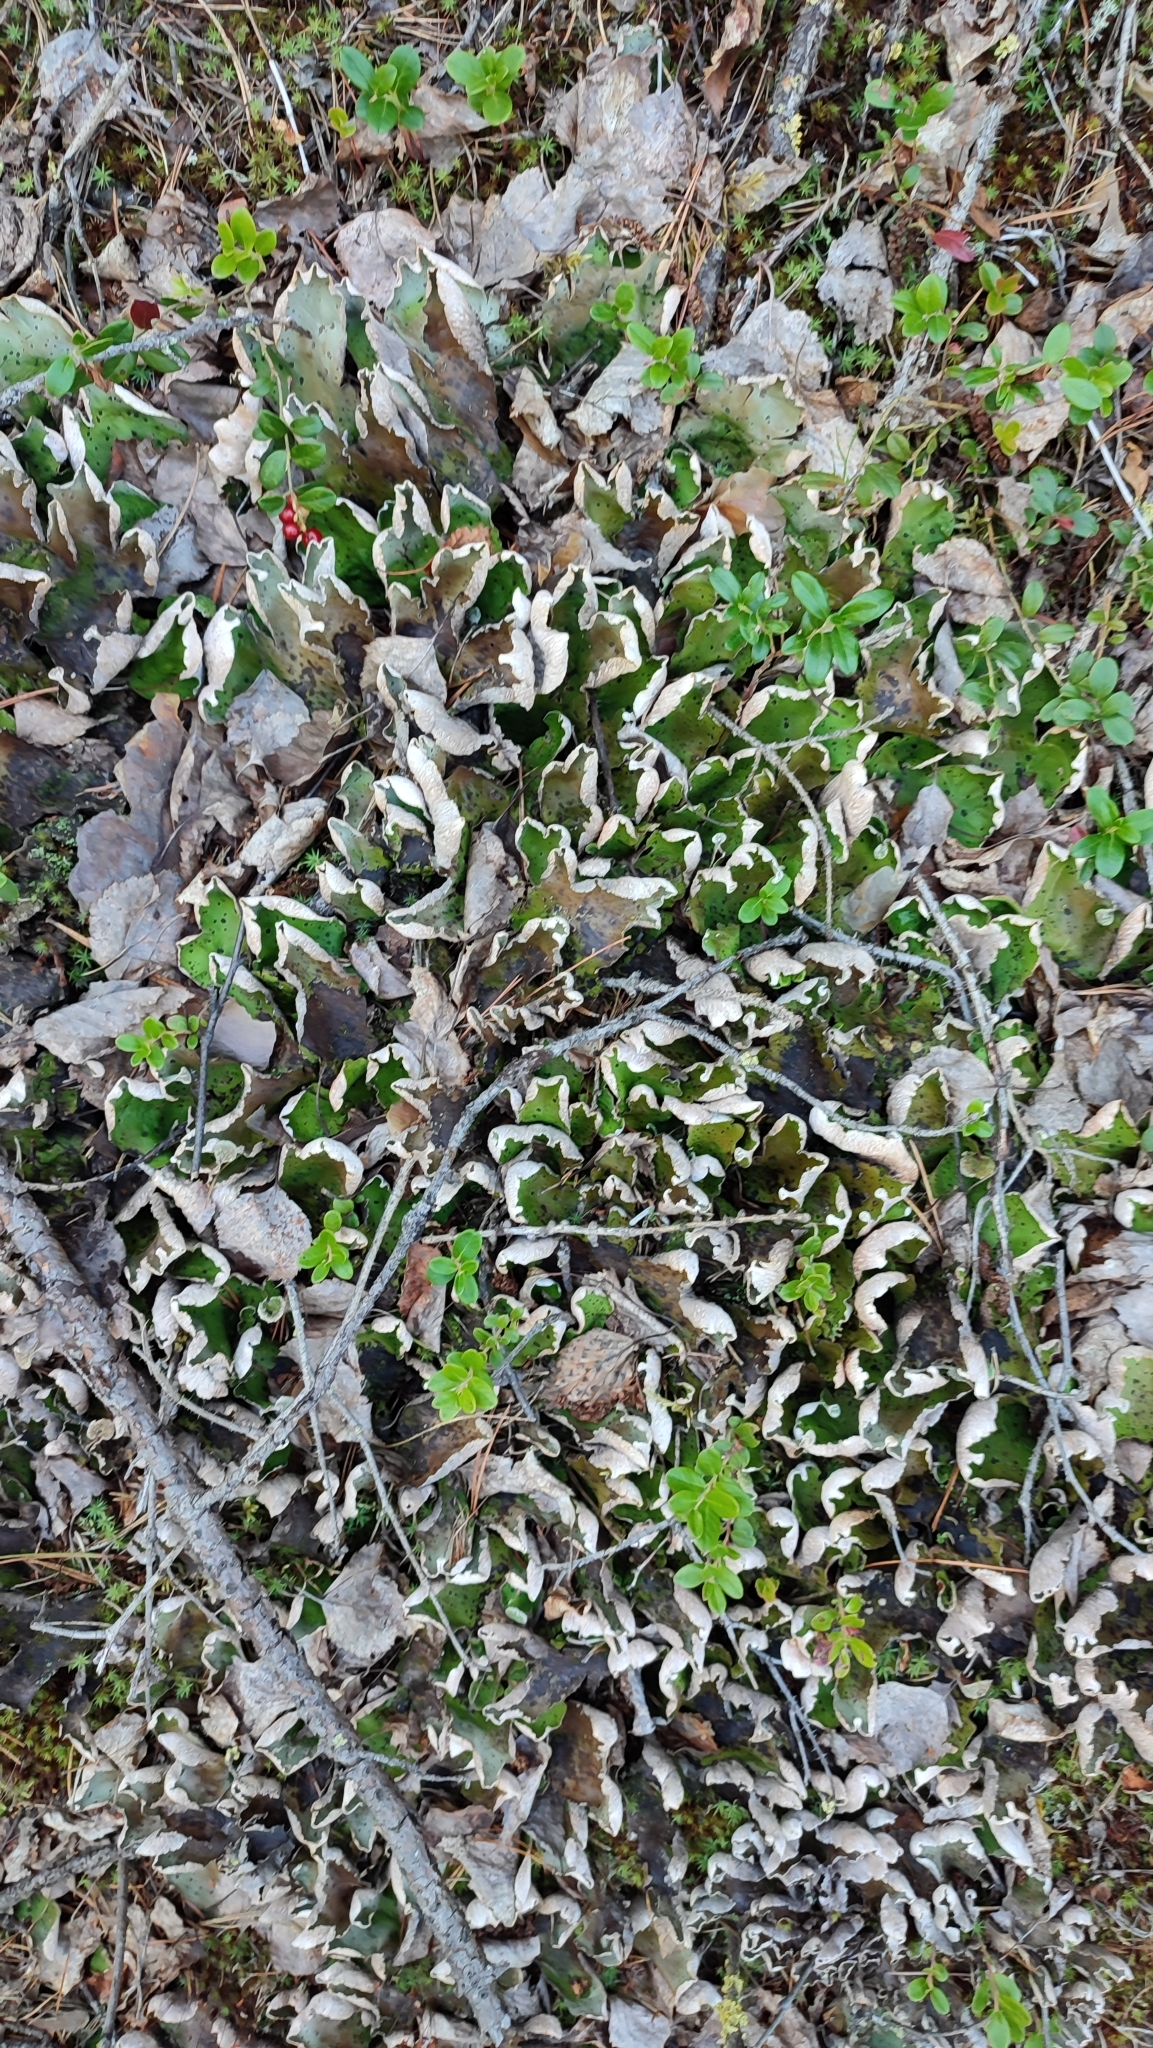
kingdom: Fungi
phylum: Ascomycota
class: Lecanoromycetes
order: Peltigerales
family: Peltigeraceae
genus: Peltigera
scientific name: Peltigera aphthosa
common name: Common freckle pelt lichen
